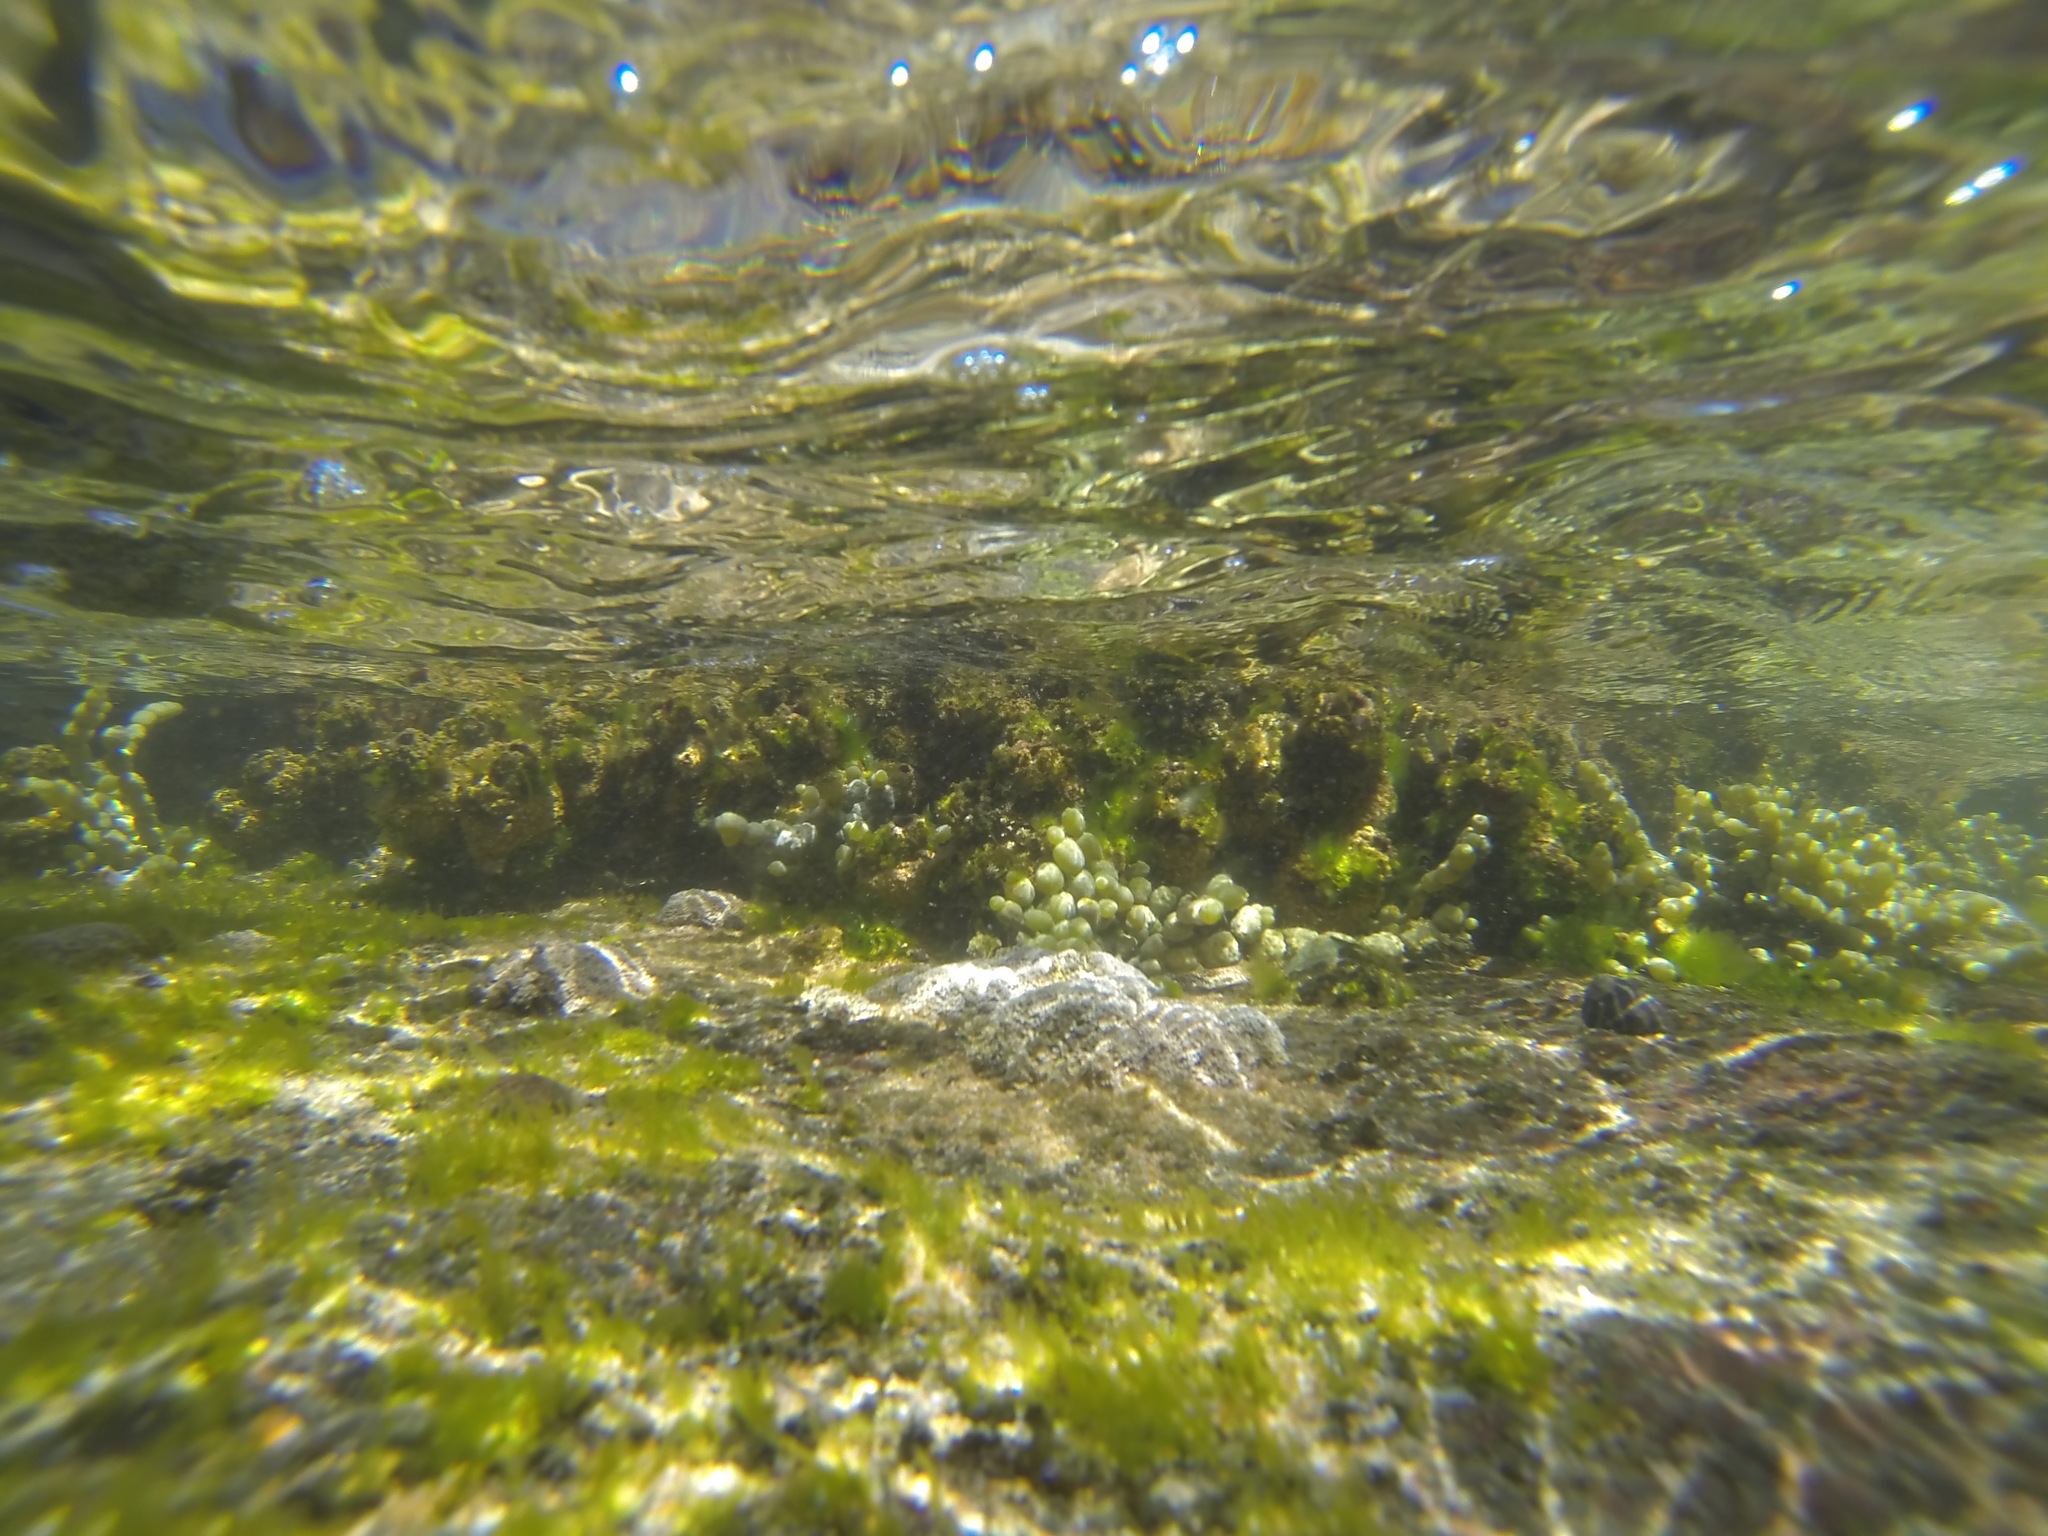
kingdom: Chromista
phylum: Ochrophyta
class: Phaeophyceae
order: Fucales
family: Hormosiraceae
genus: Hormosira
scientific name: Hormosira banksii
